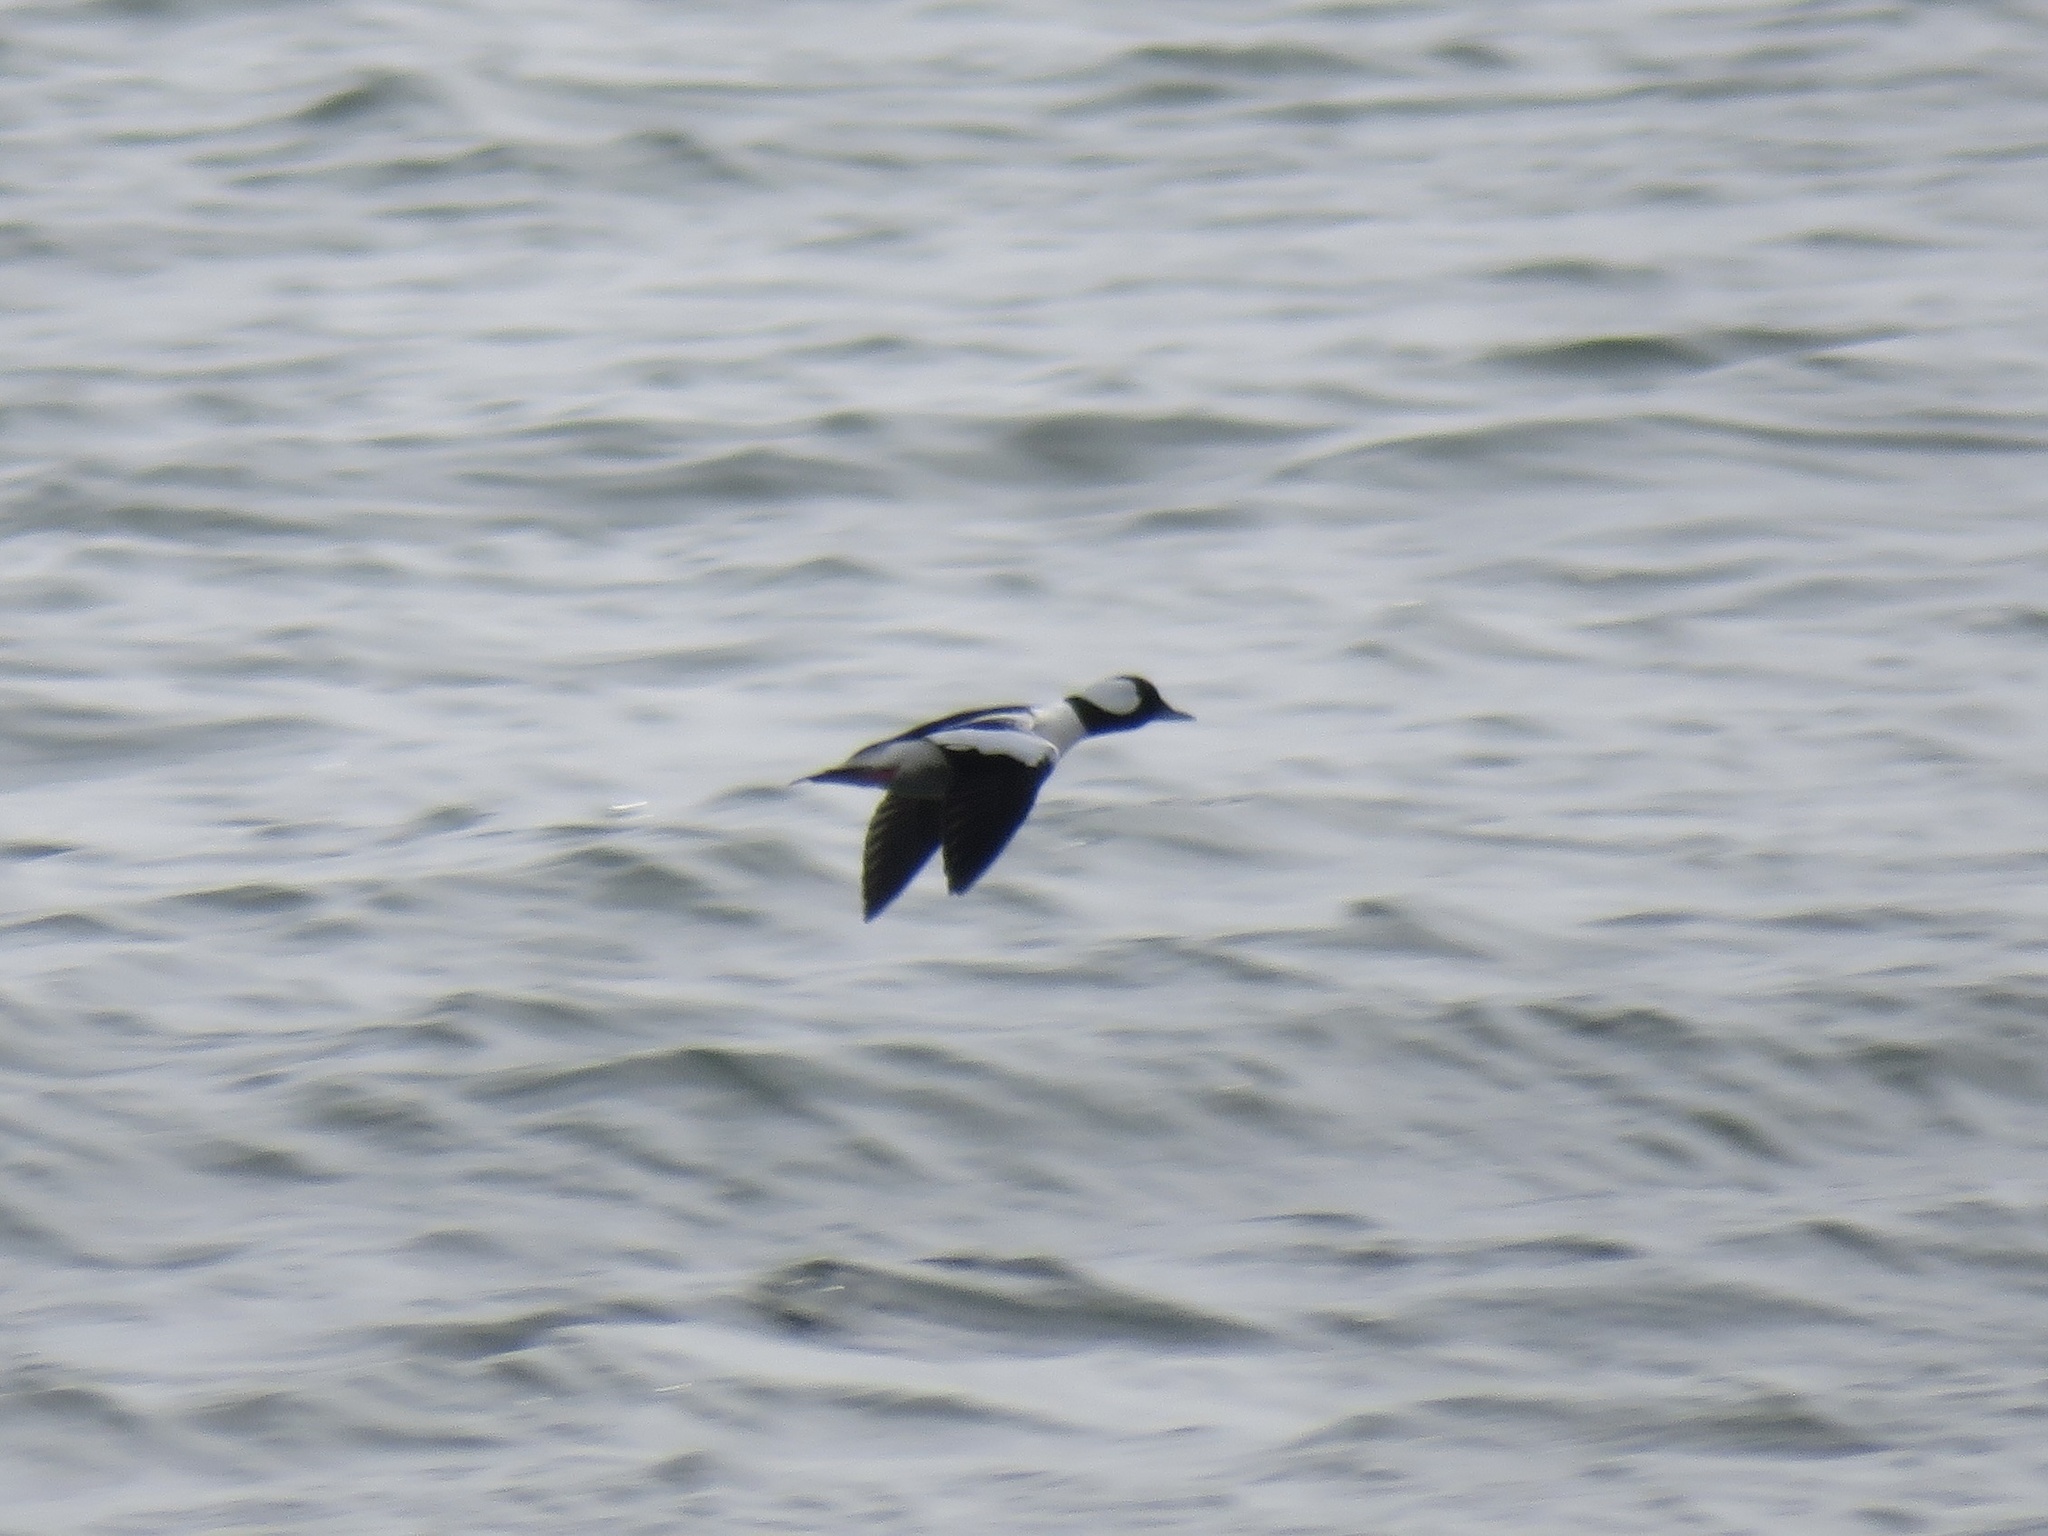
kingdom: Animalia
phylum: Chordata
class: Aves
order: Anseriformes
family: Anatidae
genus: Bucephala
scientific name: Bucephala albeola
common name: Bufflehead
